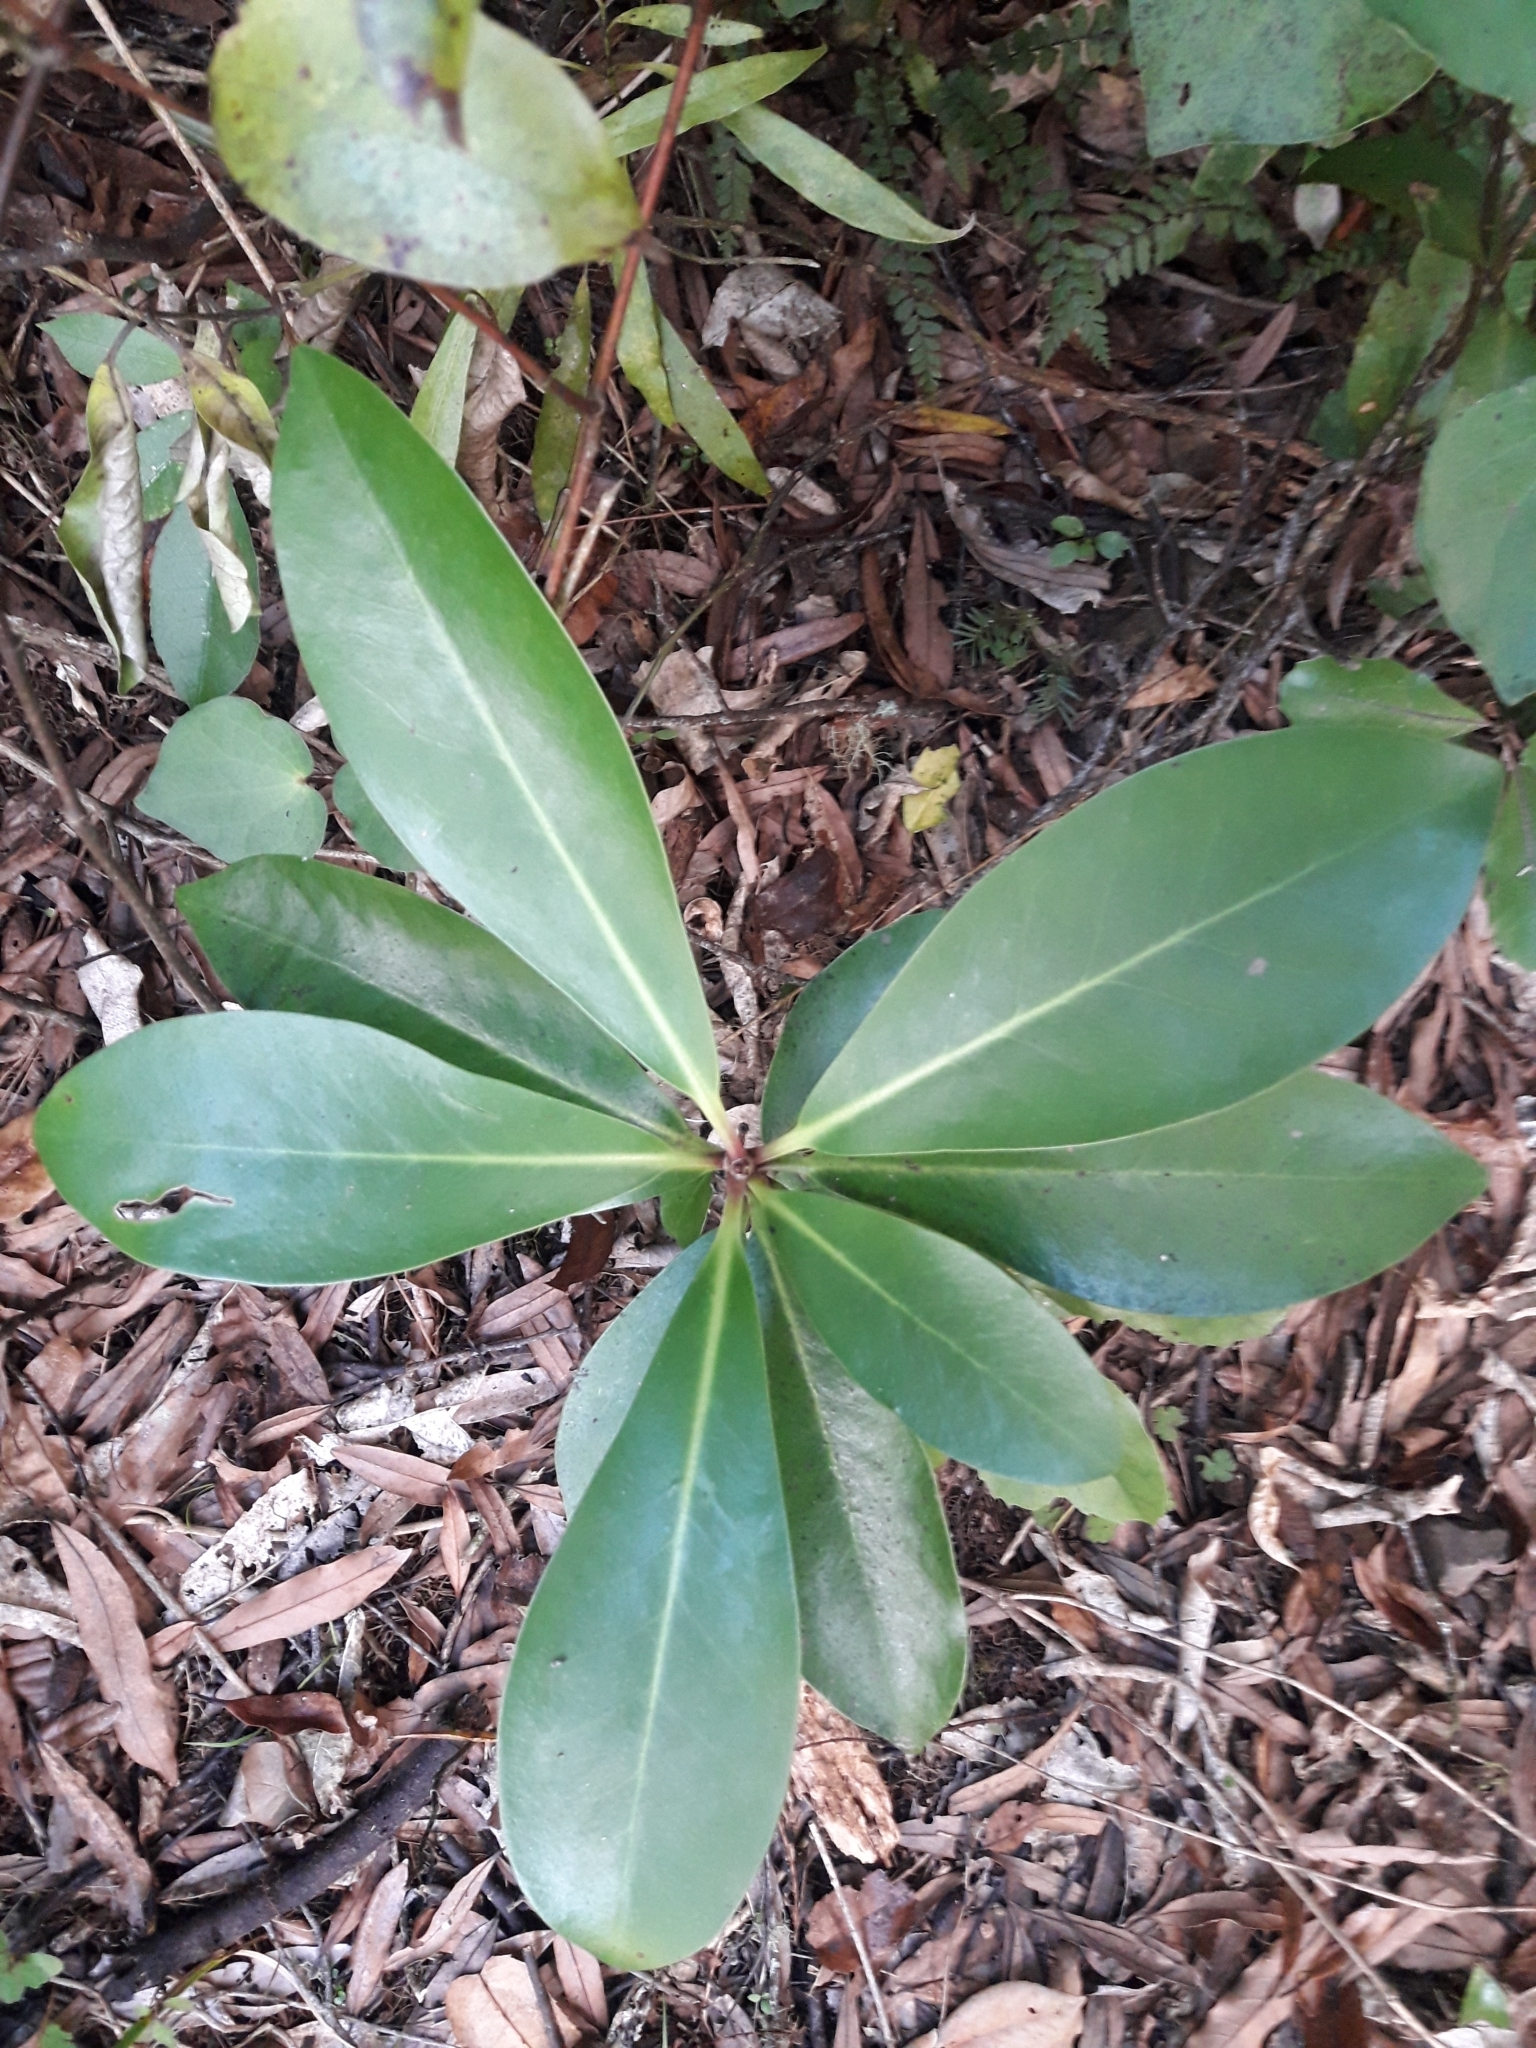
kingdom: Plantae
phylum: Tracheophyta
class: Magnoliopsida
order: Cucurbitales
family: Corynocarpaceae
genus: Corynocarpus
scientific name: Corynocarpus laevigatus
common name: New zealand laurel
